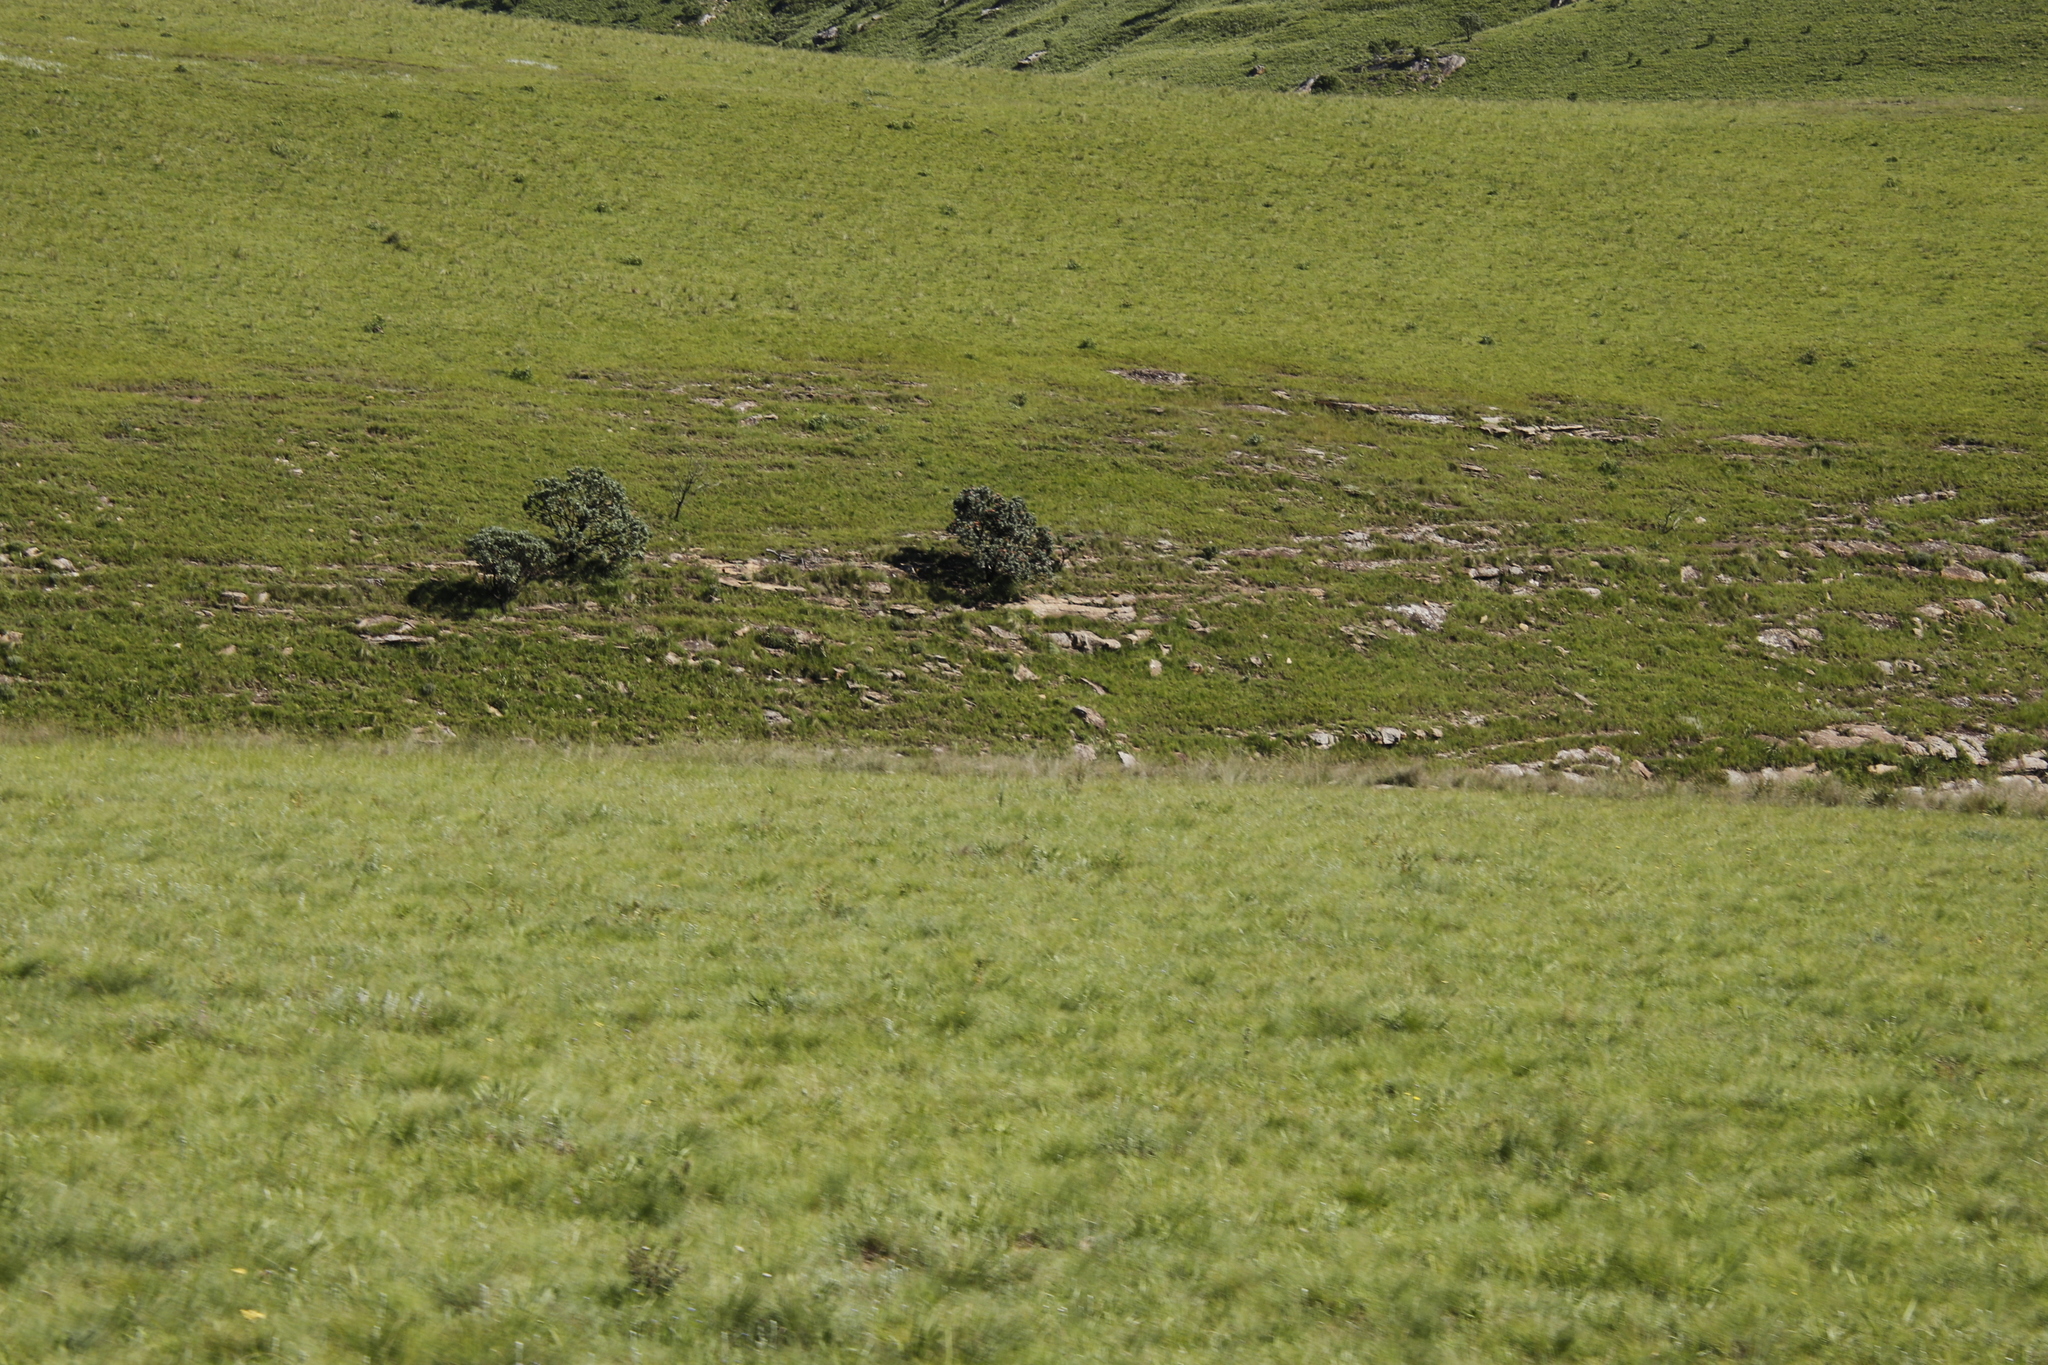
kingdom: Plantae
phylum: Tracheophyta
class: Magnoliopsida
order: Proteales
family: Proteaceae
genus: Protea
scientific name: Protea roupelliae
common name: Silver sugarbush
